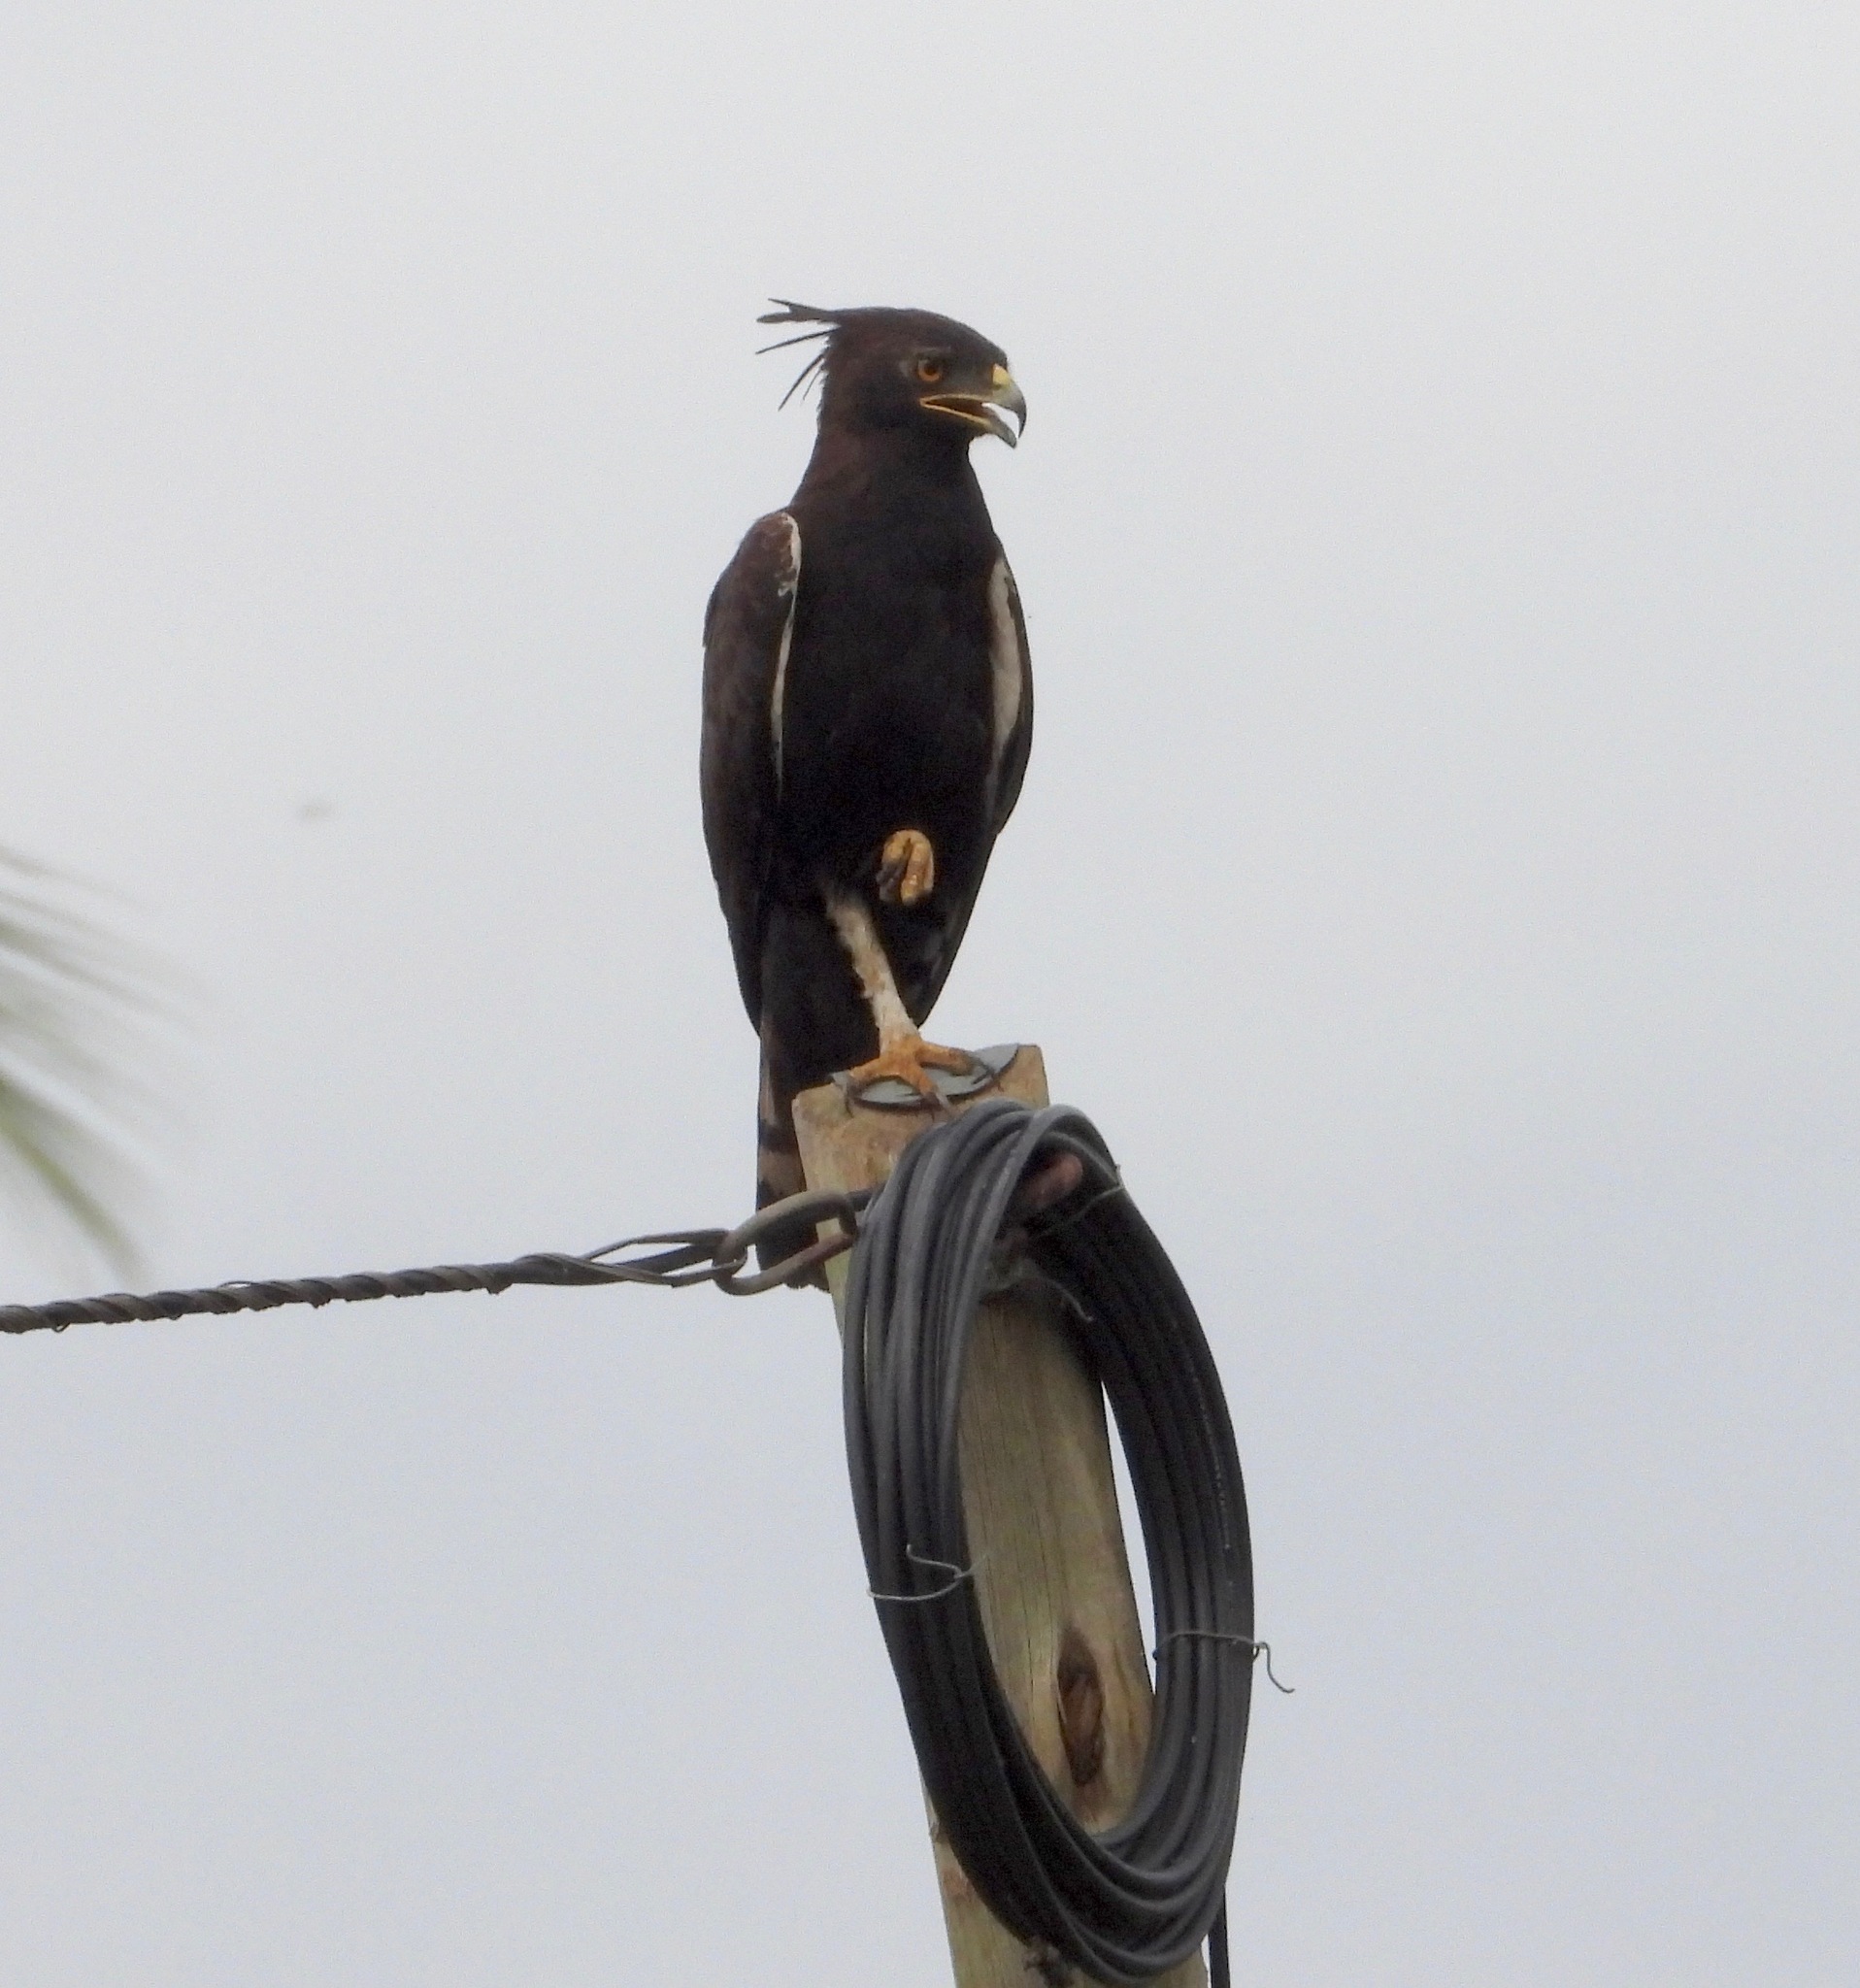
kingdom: Animalia
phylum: Chordata
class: Aves
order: Accipitriformes
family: Accipitridae
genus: Lophaetus
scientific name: Lophaetus occipitalis
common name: Long-crested eagle
